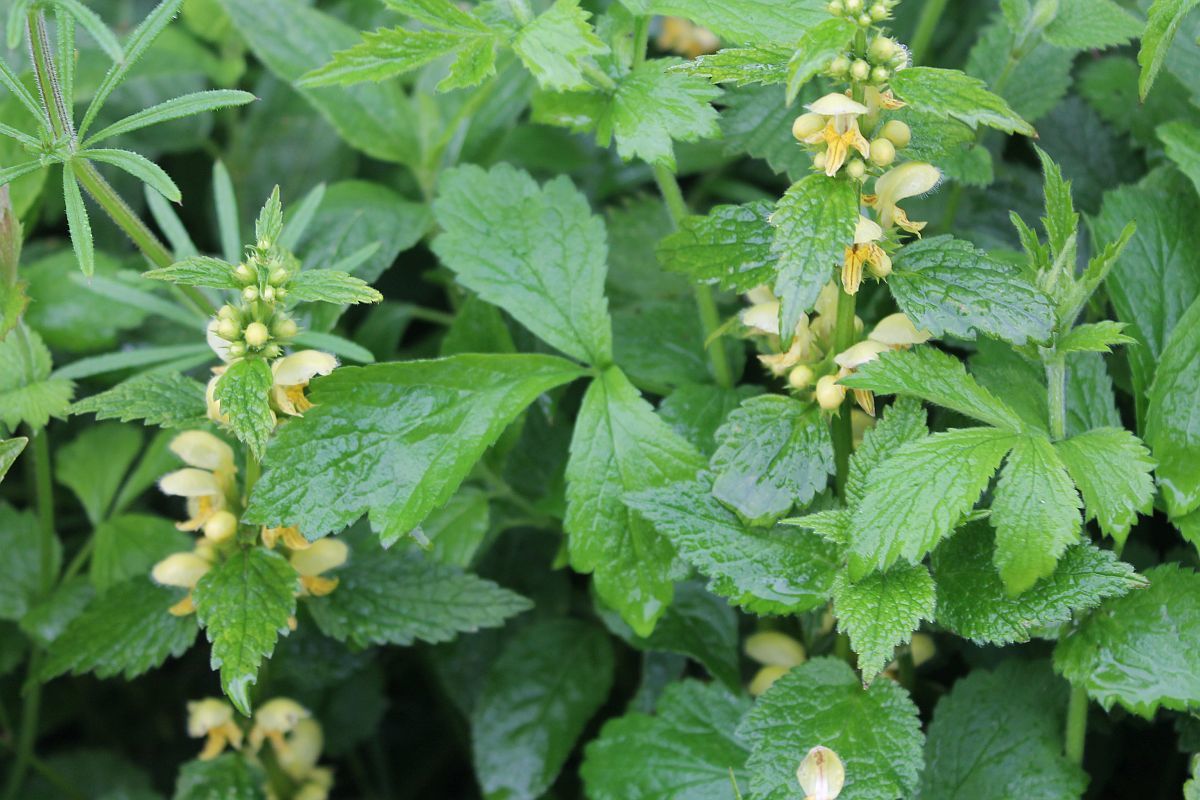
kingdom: Plantae
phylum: Tracheophyta
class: Magnoliopsida
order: Lamiales
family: Lamiaceae
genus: Lamium
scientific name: Lamium galeobdolon
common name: Yellow archangel
